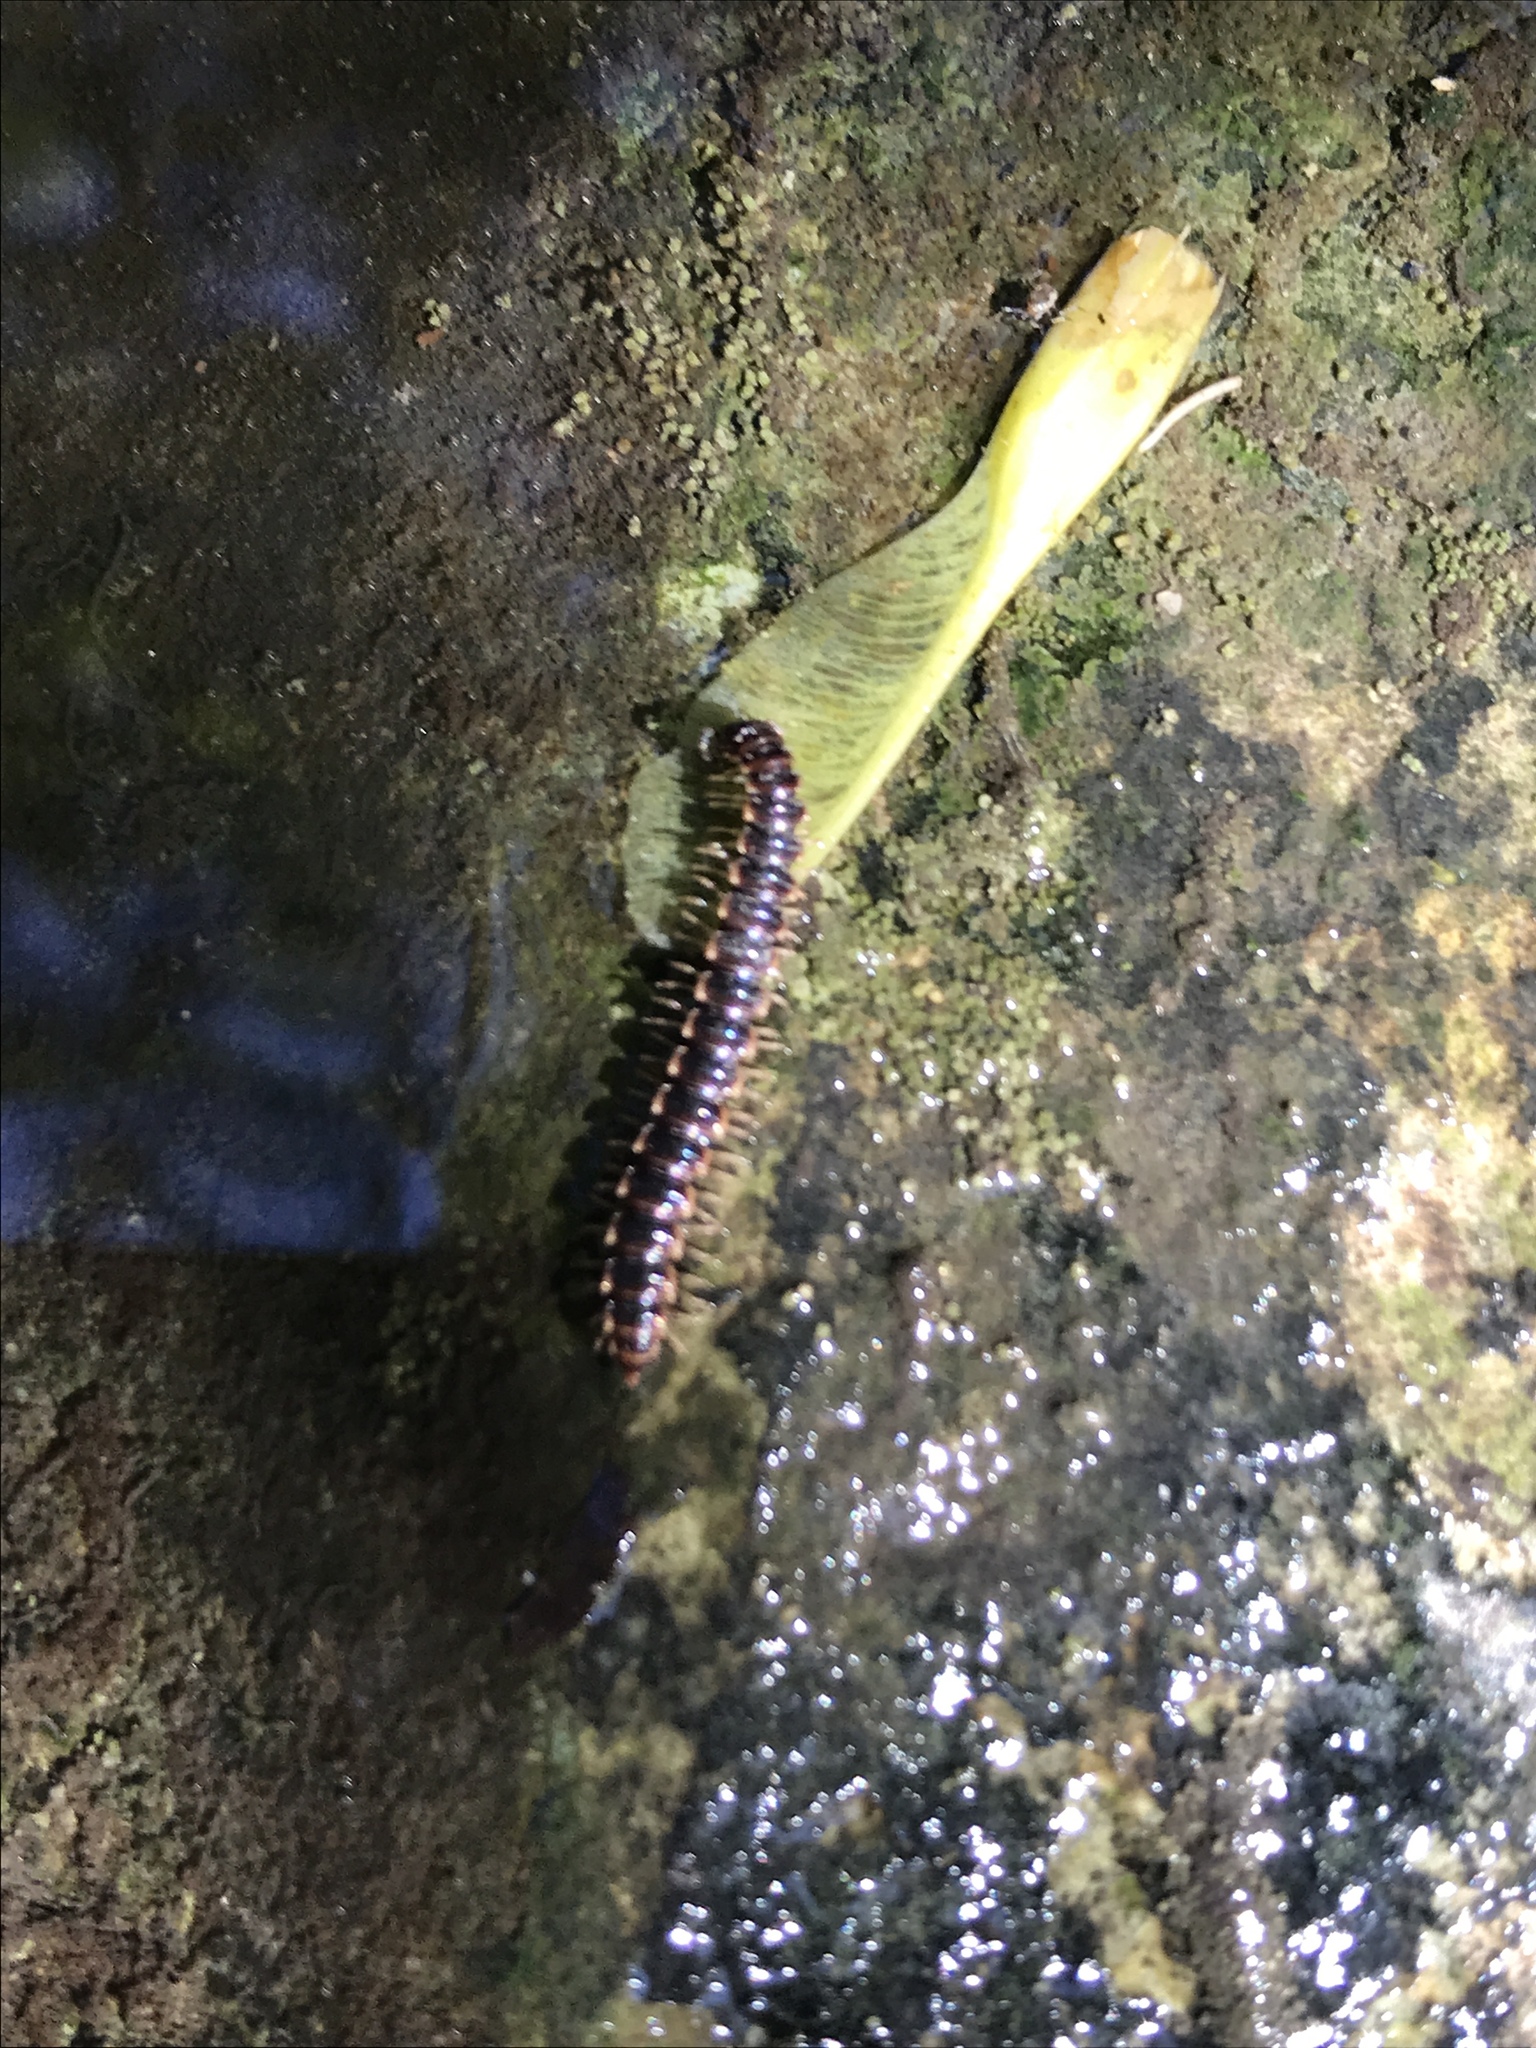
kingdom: Animalia
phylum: Arthropoda
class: Diplopoda
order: Polydesmida
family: Paradoxosomatidae
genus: Oxidus
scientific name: Oxidus gracilis
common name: Greenhouse millipede
